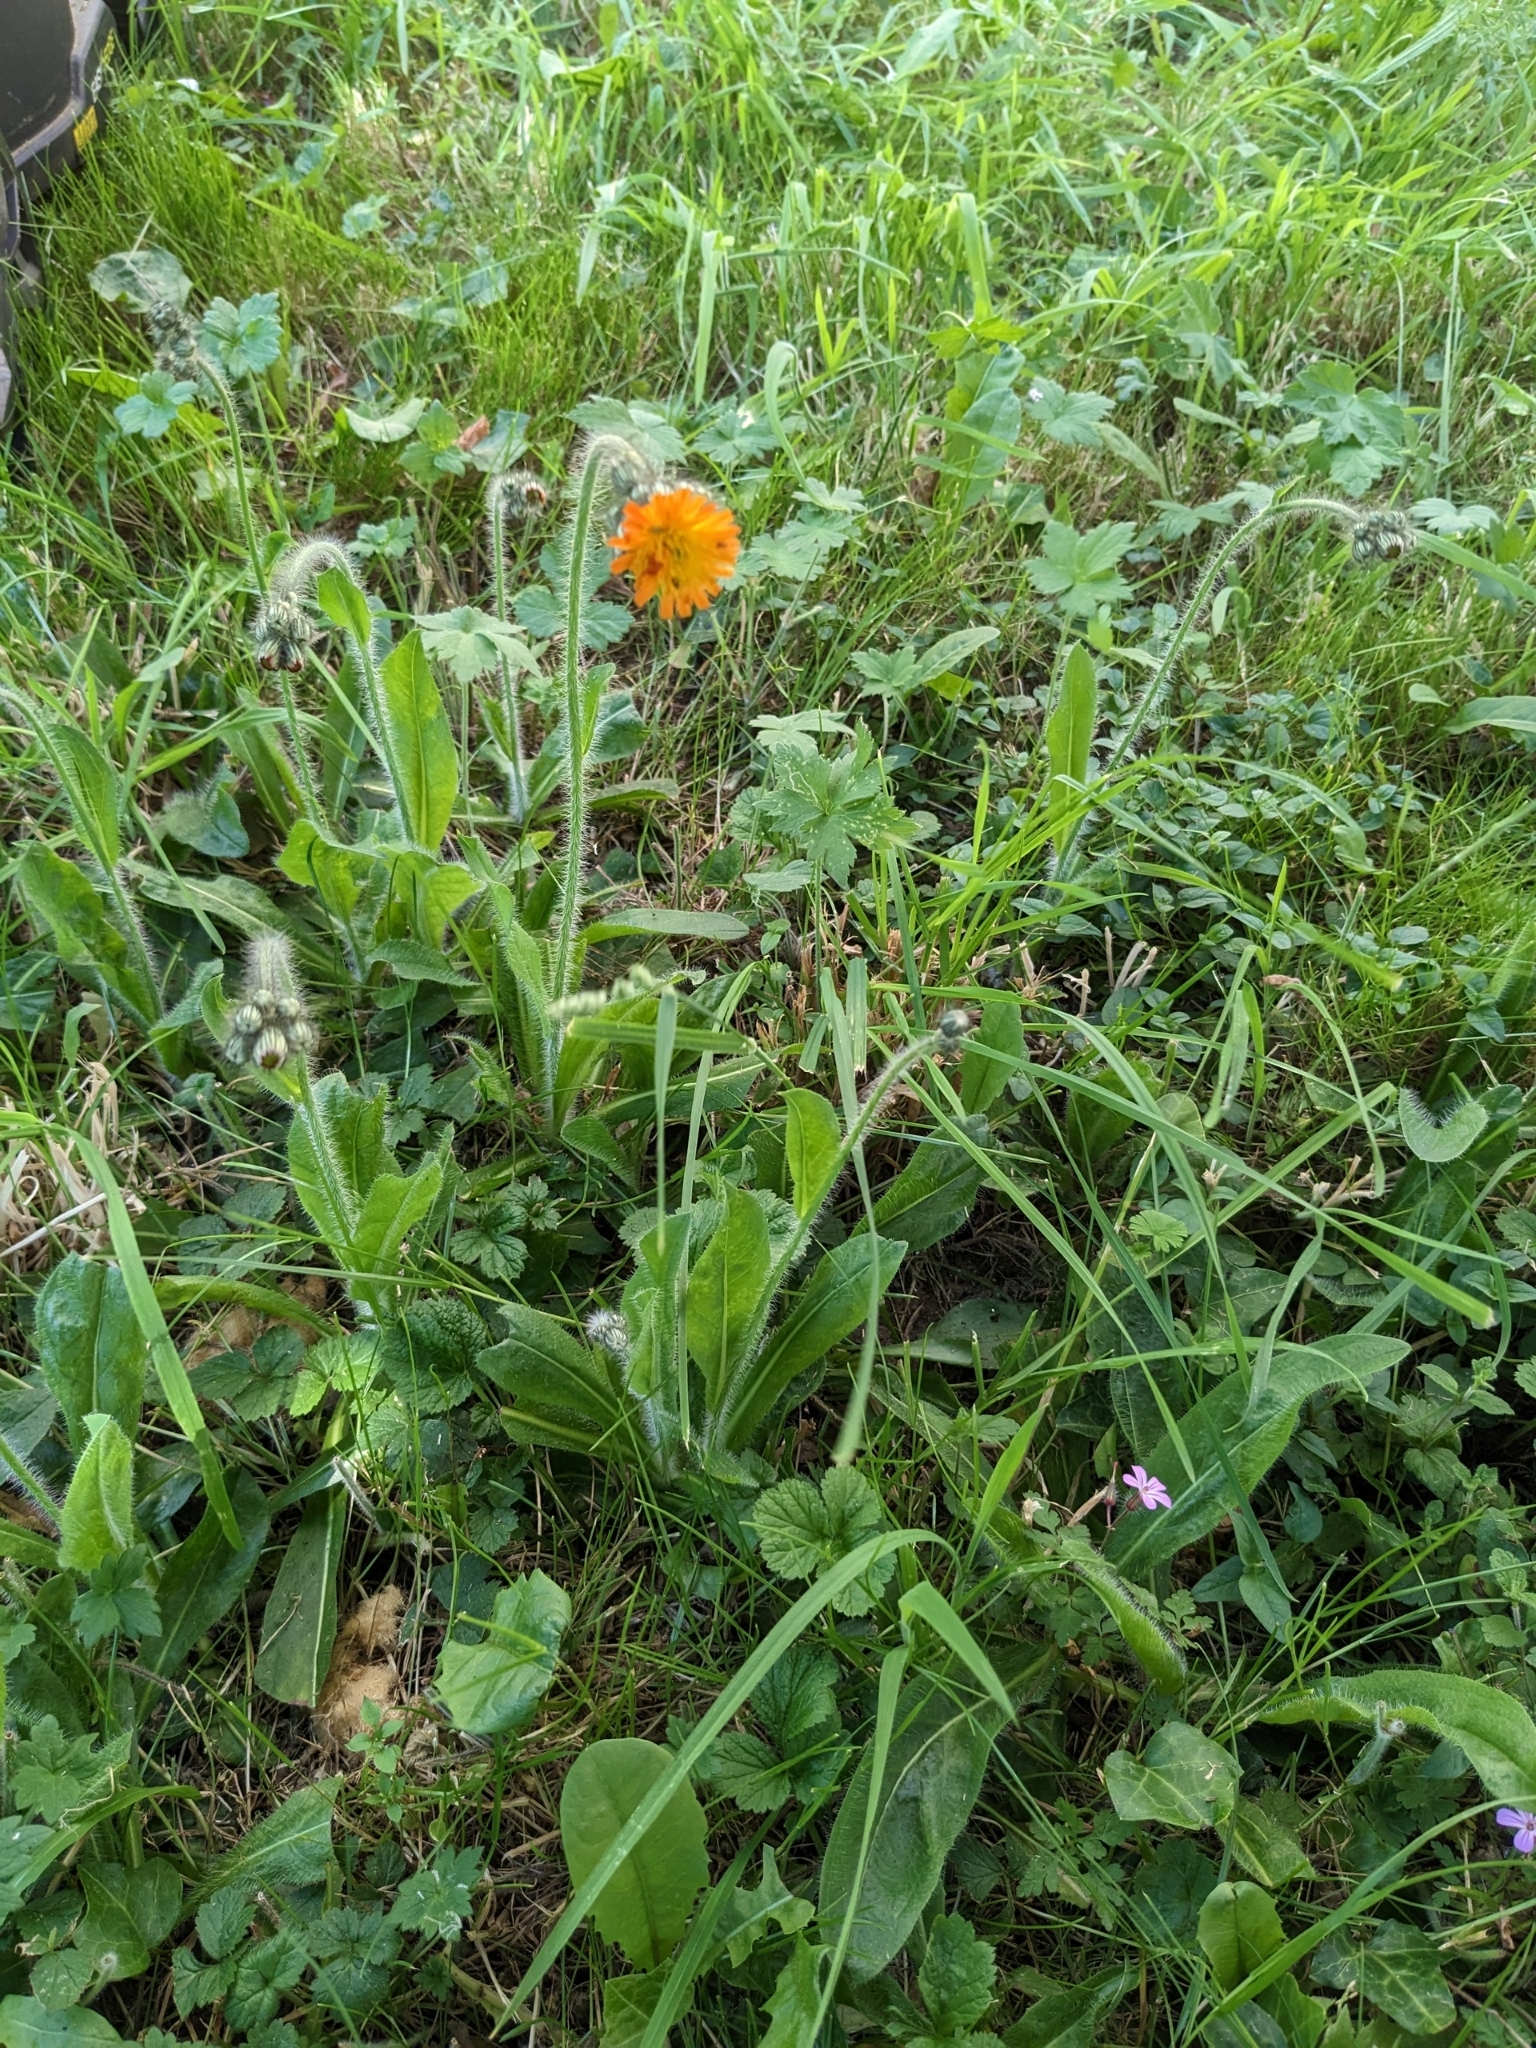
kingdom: Plantae
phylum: Tracheophyta
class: Magnoliopsida
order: Asterales
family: Asteraceae
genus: Pilosella
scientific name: Pilosella aurantiaca
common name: Fox-and-cubs
